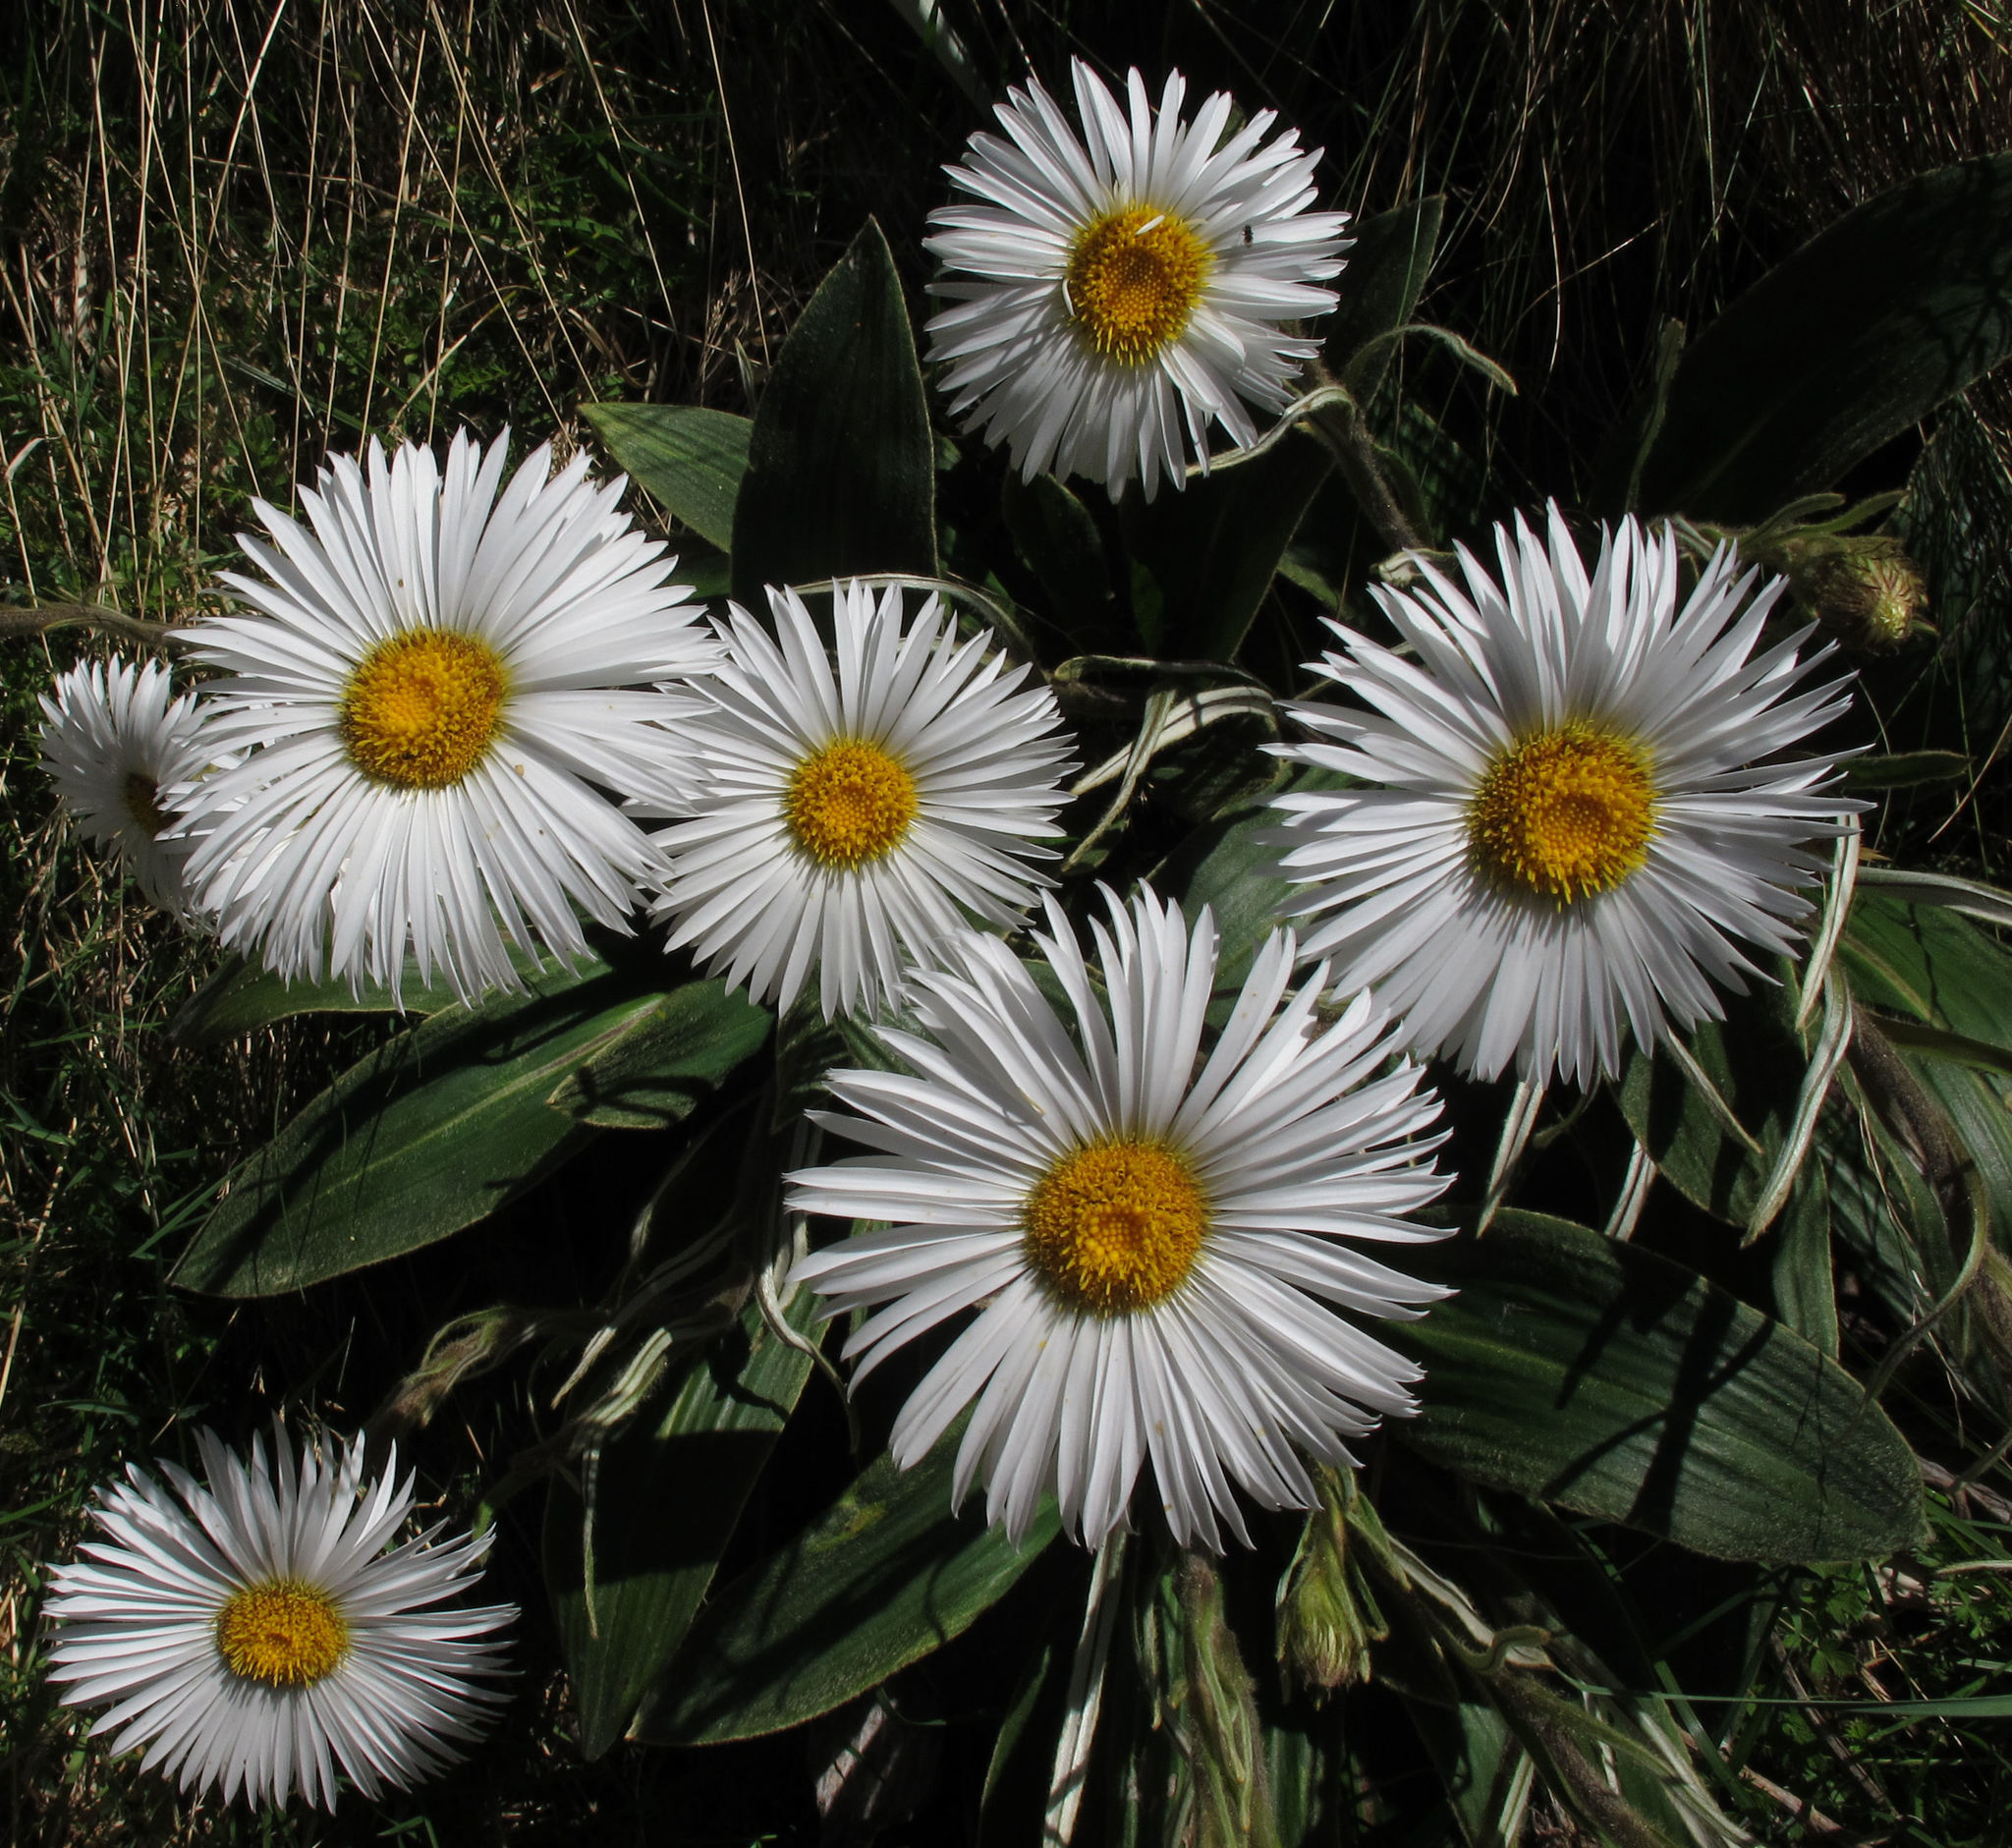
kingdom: Plantae
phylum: Tracheophyta
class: Magnoliopsida
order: Asterales
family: Asteraceae
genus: Celmisia
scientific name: Celmisia verbascifolia
